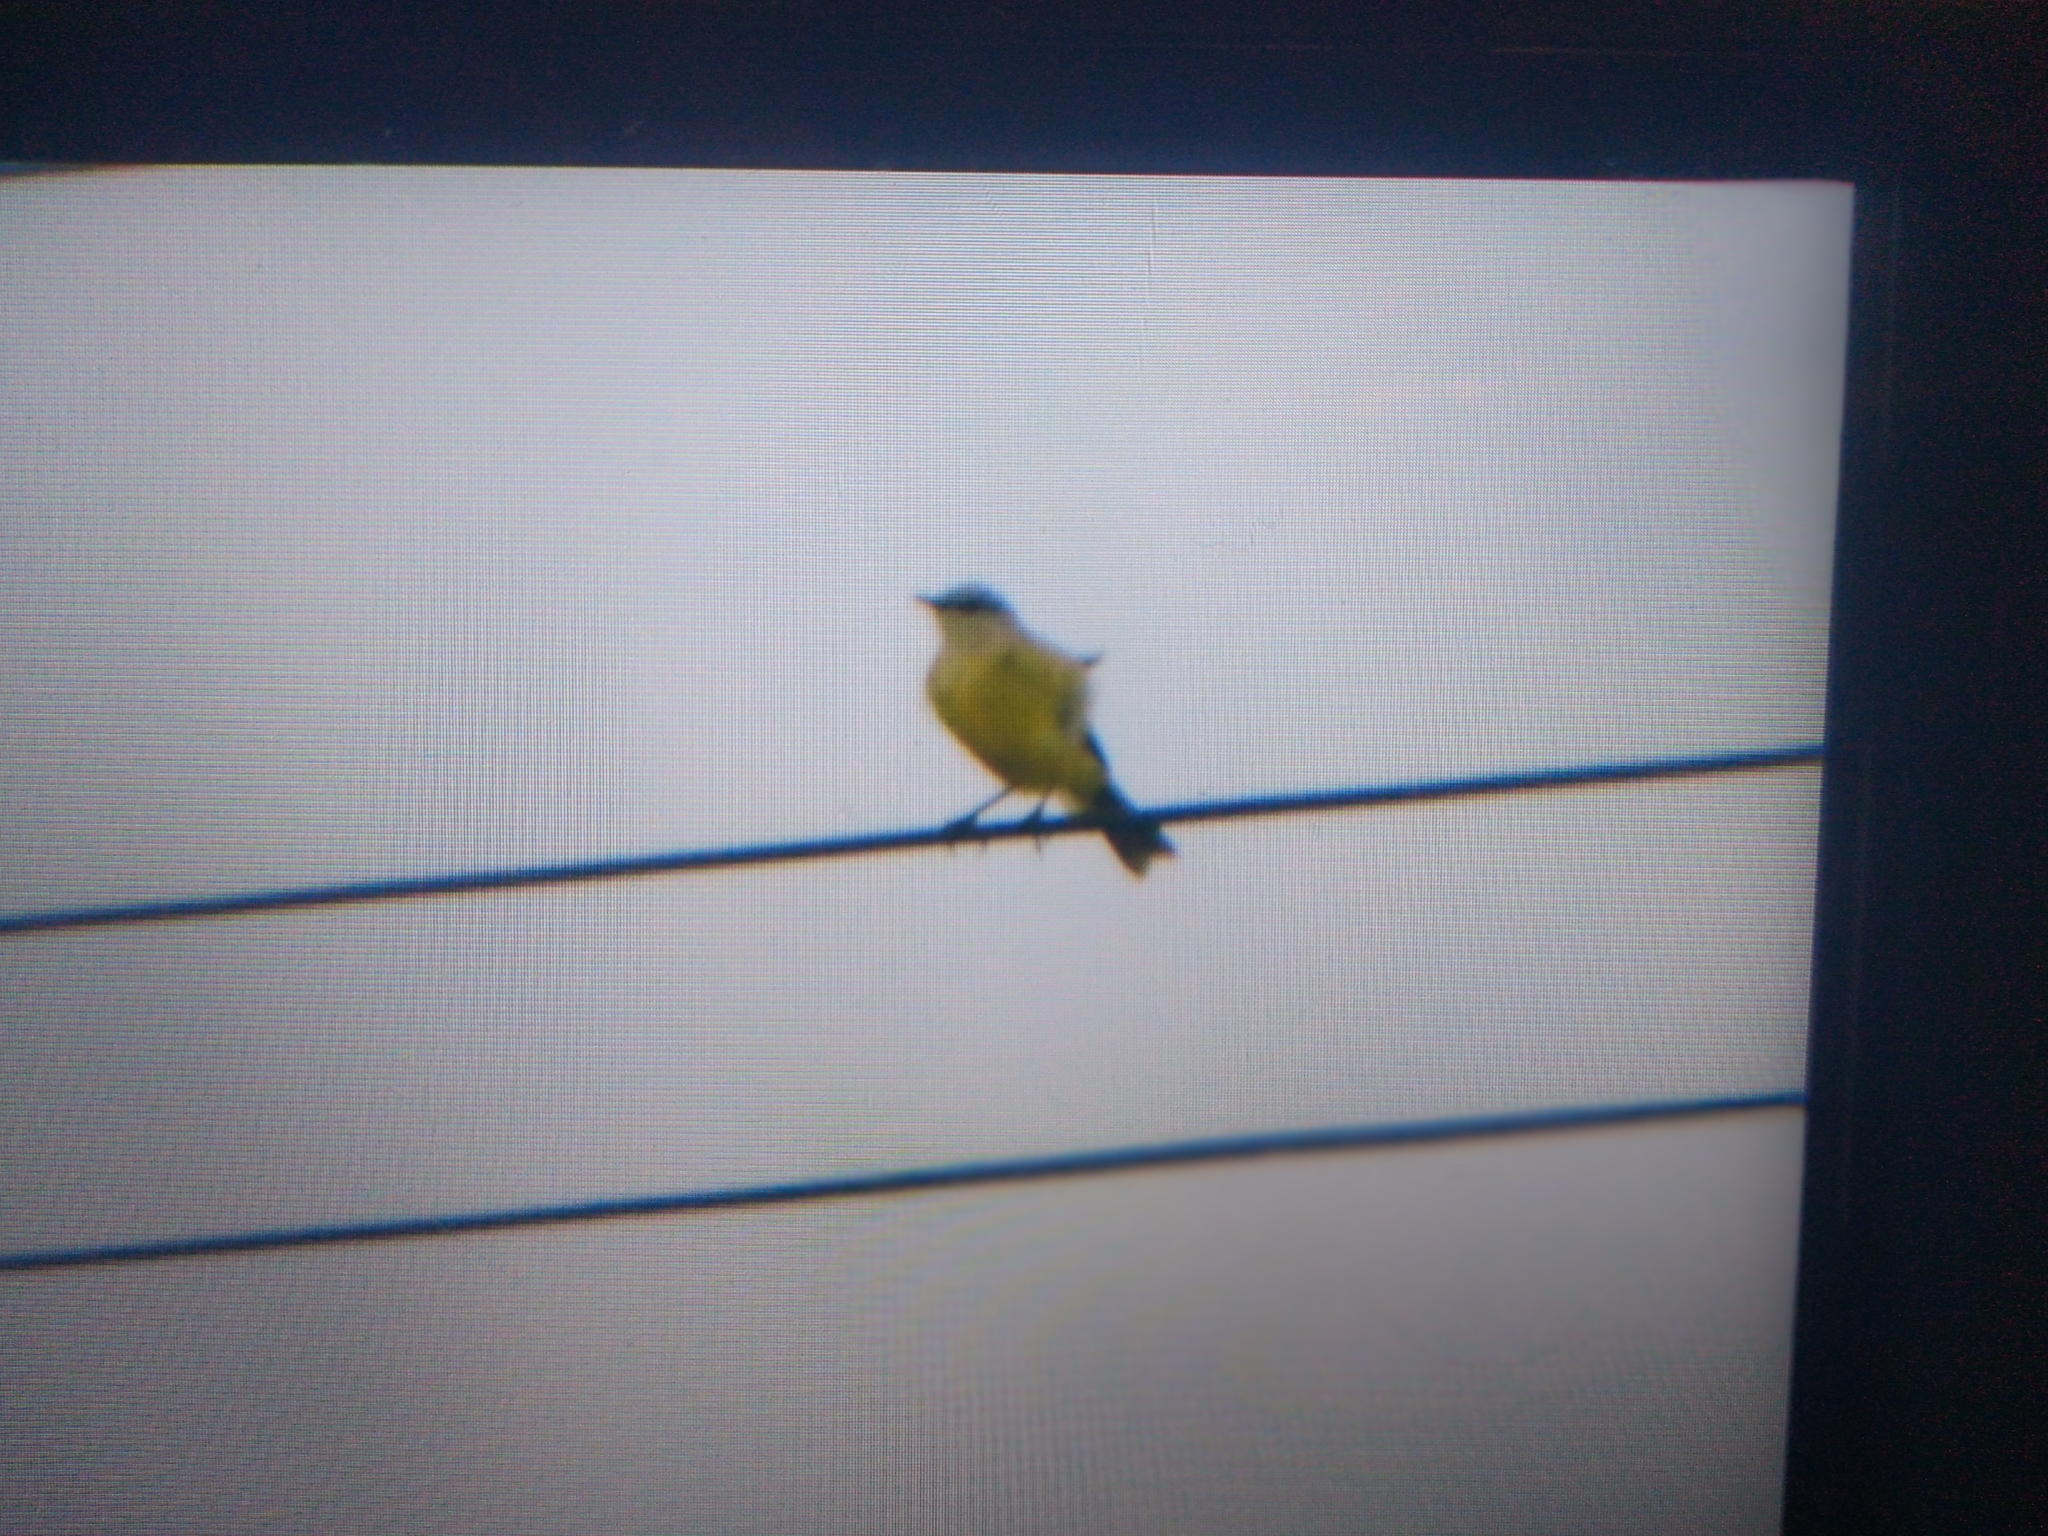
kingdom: Animalia
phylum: Chordata
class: Aves
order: Passeriformes
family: Tyrannidae
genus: Machetornis
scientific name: Machetornis rixosa
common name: Cattle tyrant
